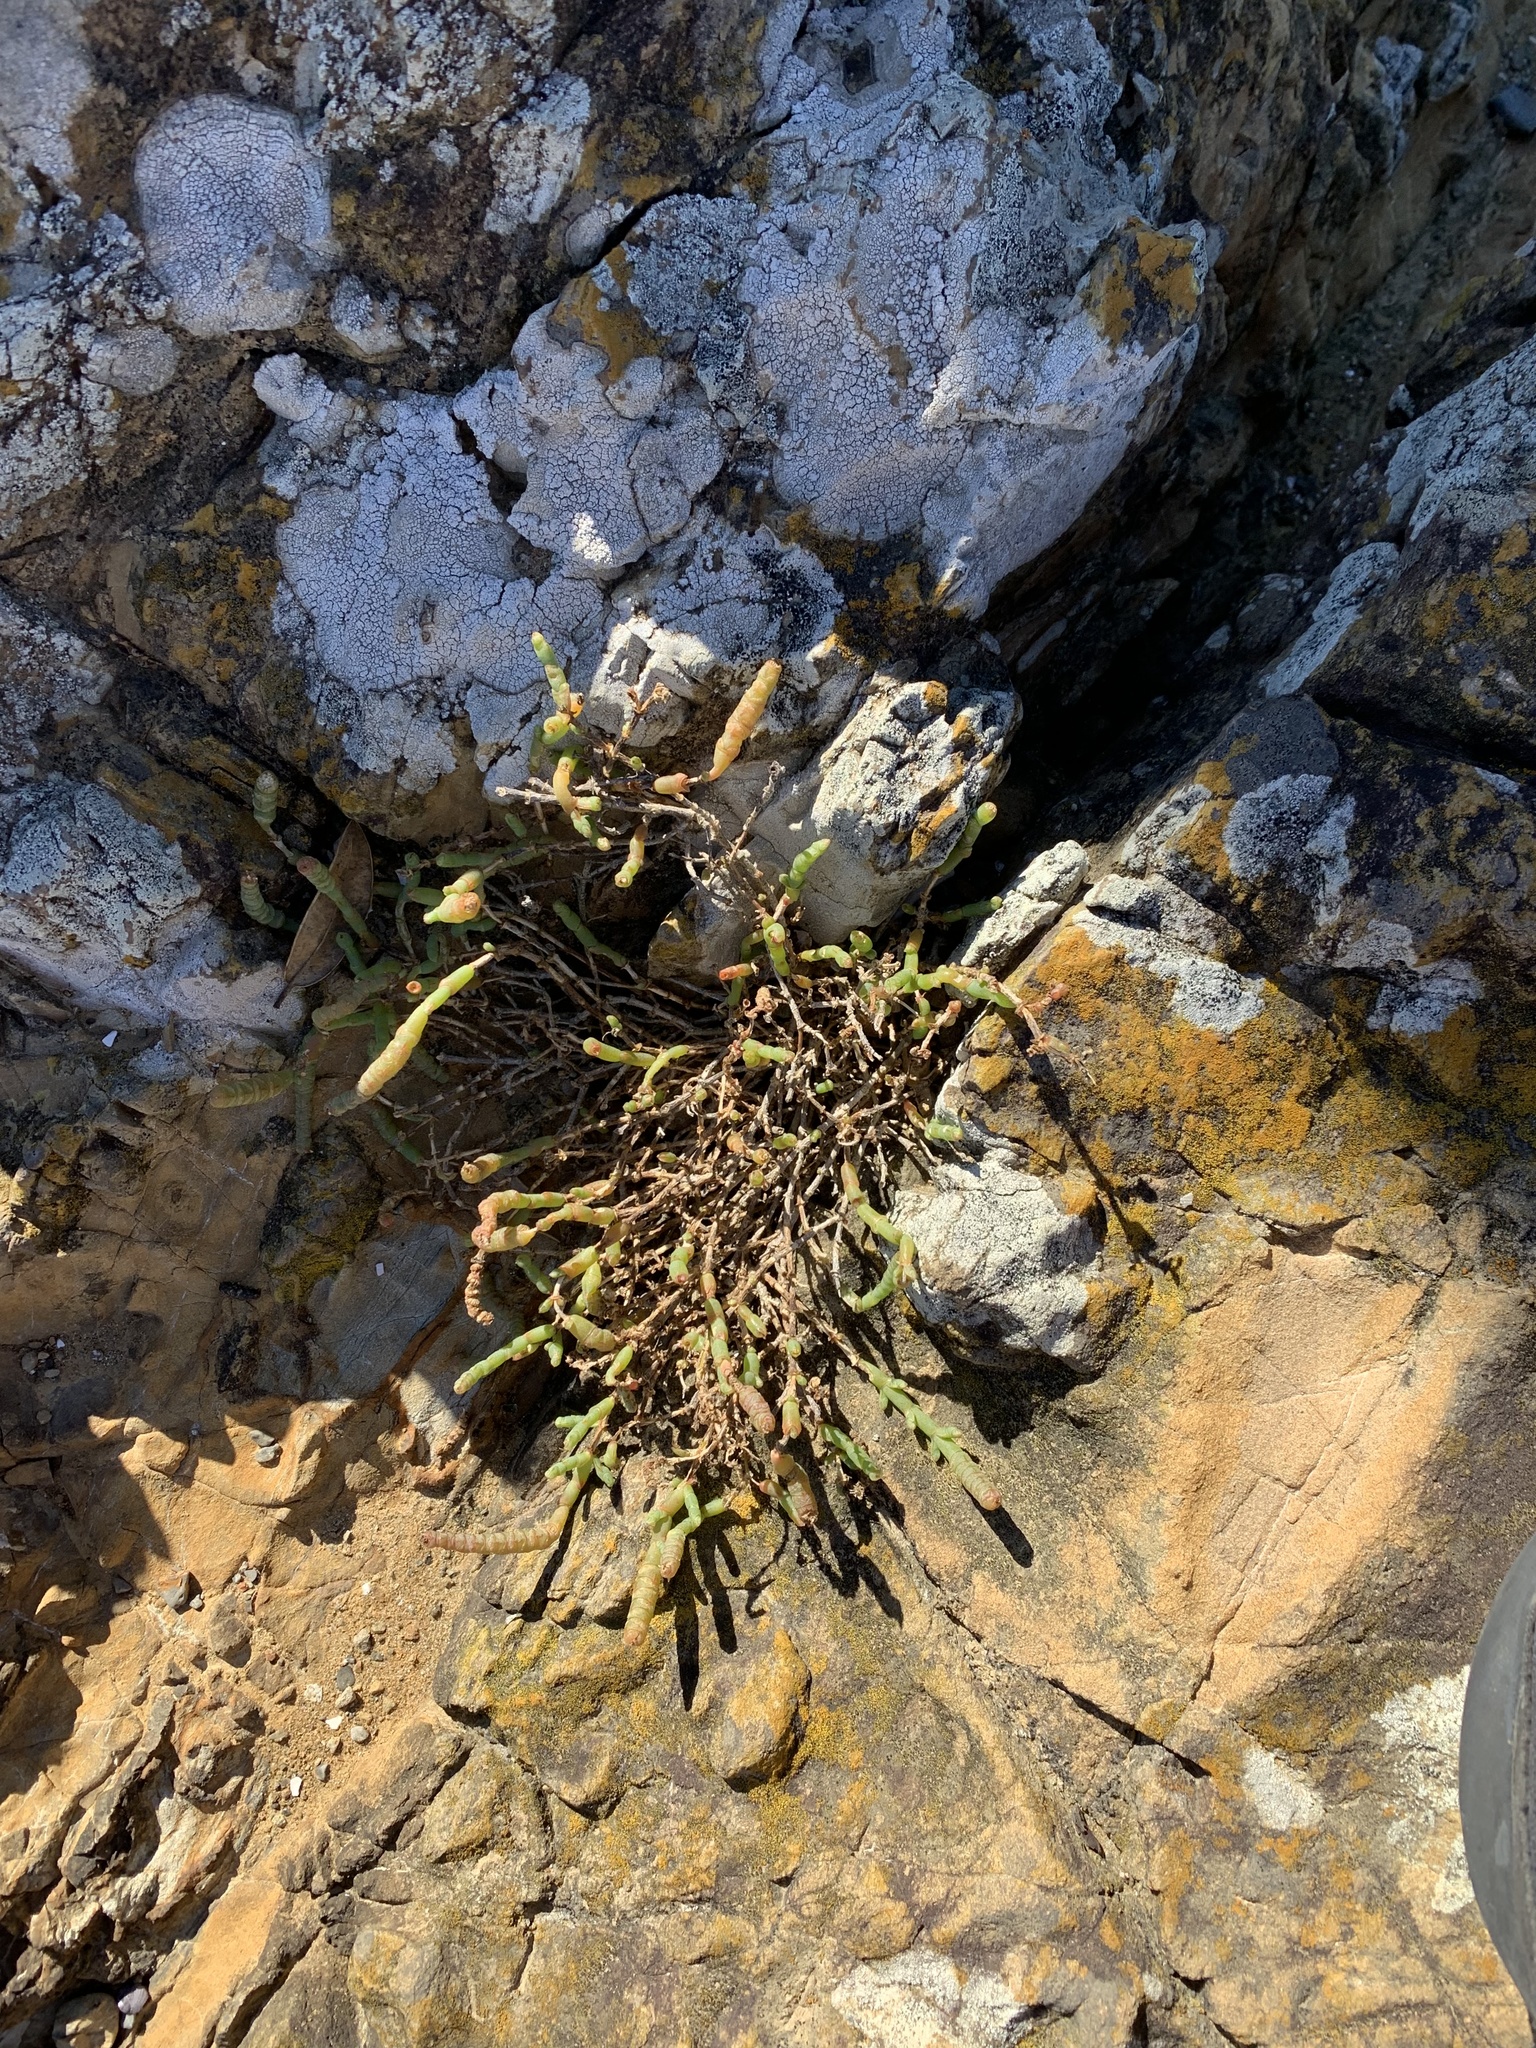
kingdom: Plantae
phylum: Tracheophyta
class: Magnoliopsida
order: Caryophyllales
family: Amaranthaceae
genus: Salicornia
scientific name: Salicornia quinqueflora
